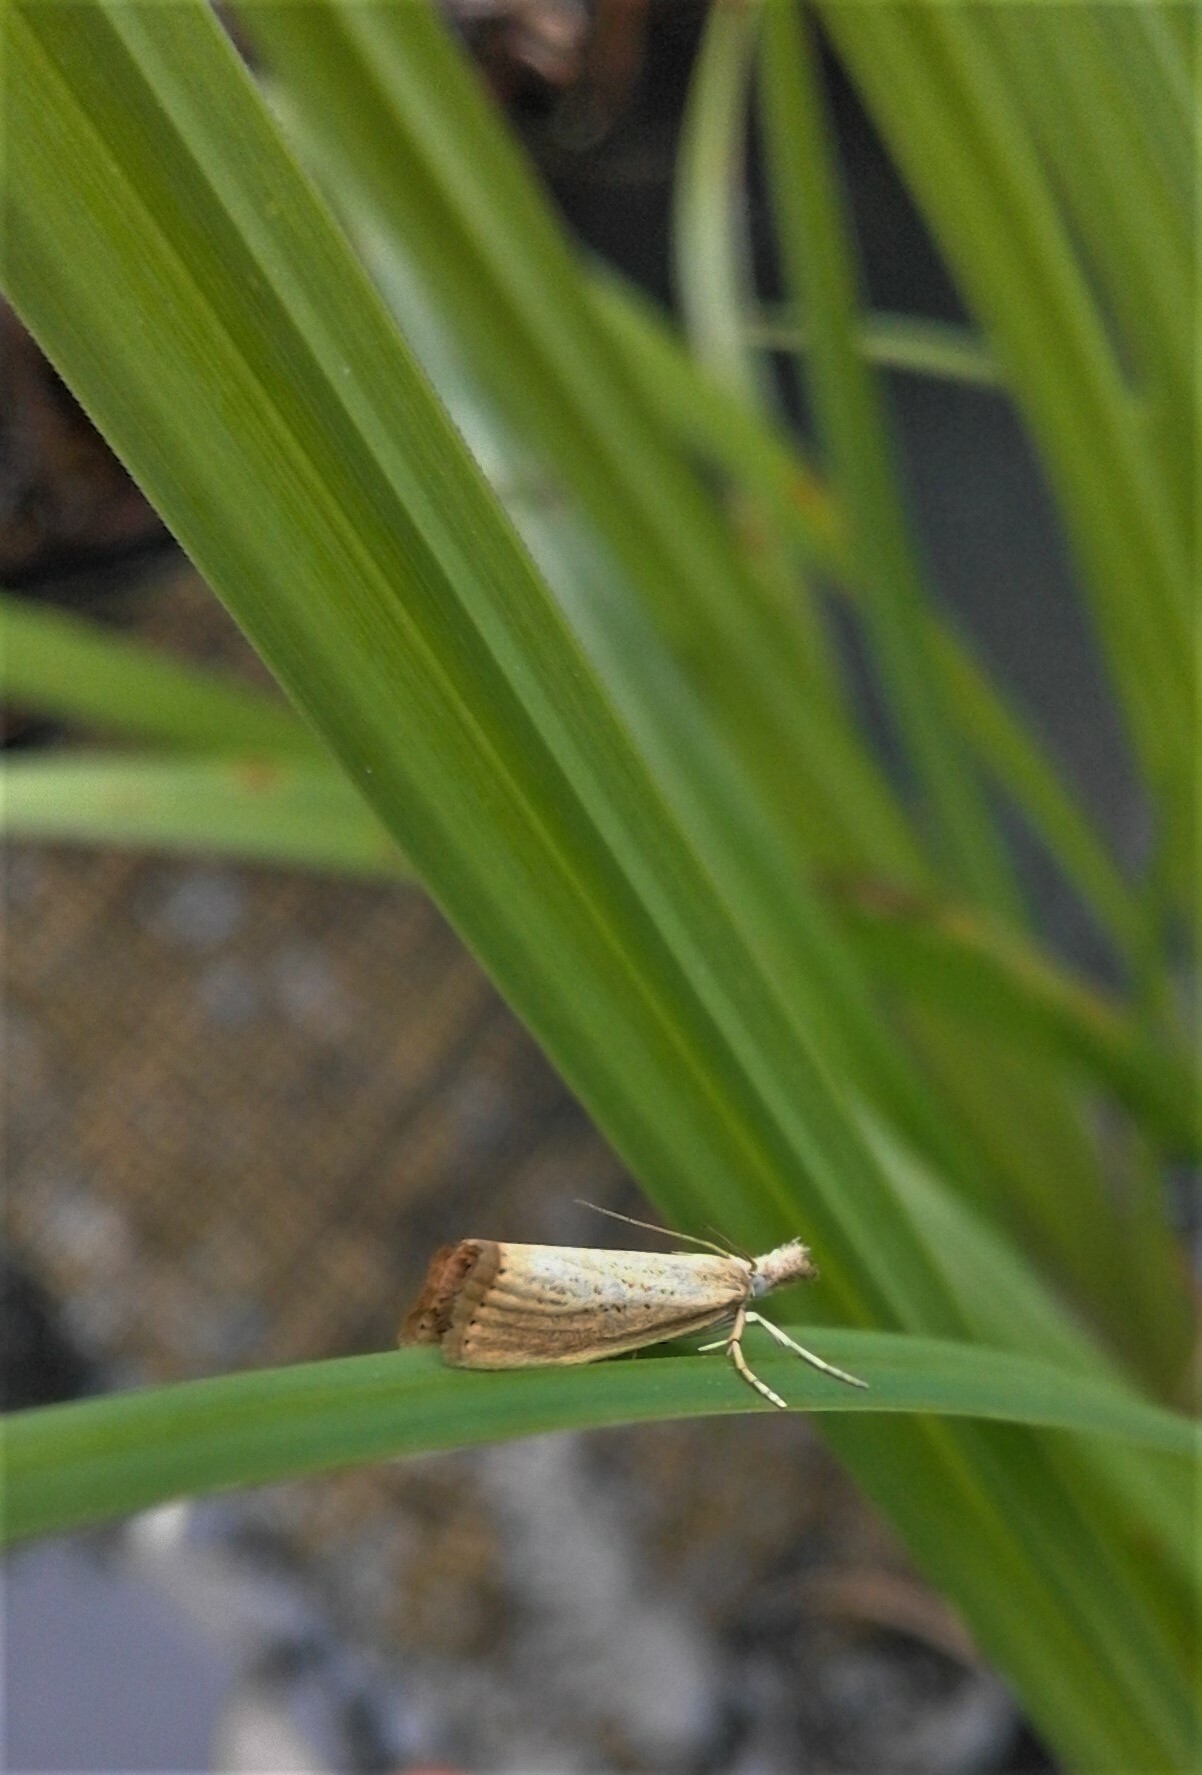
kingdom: Animalia
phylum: Arthropoda
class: Insecta
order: Lepidoptera
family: Crambidae
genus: Agriphila
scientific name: Agriphila straminella
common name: Straw grass-veneer
